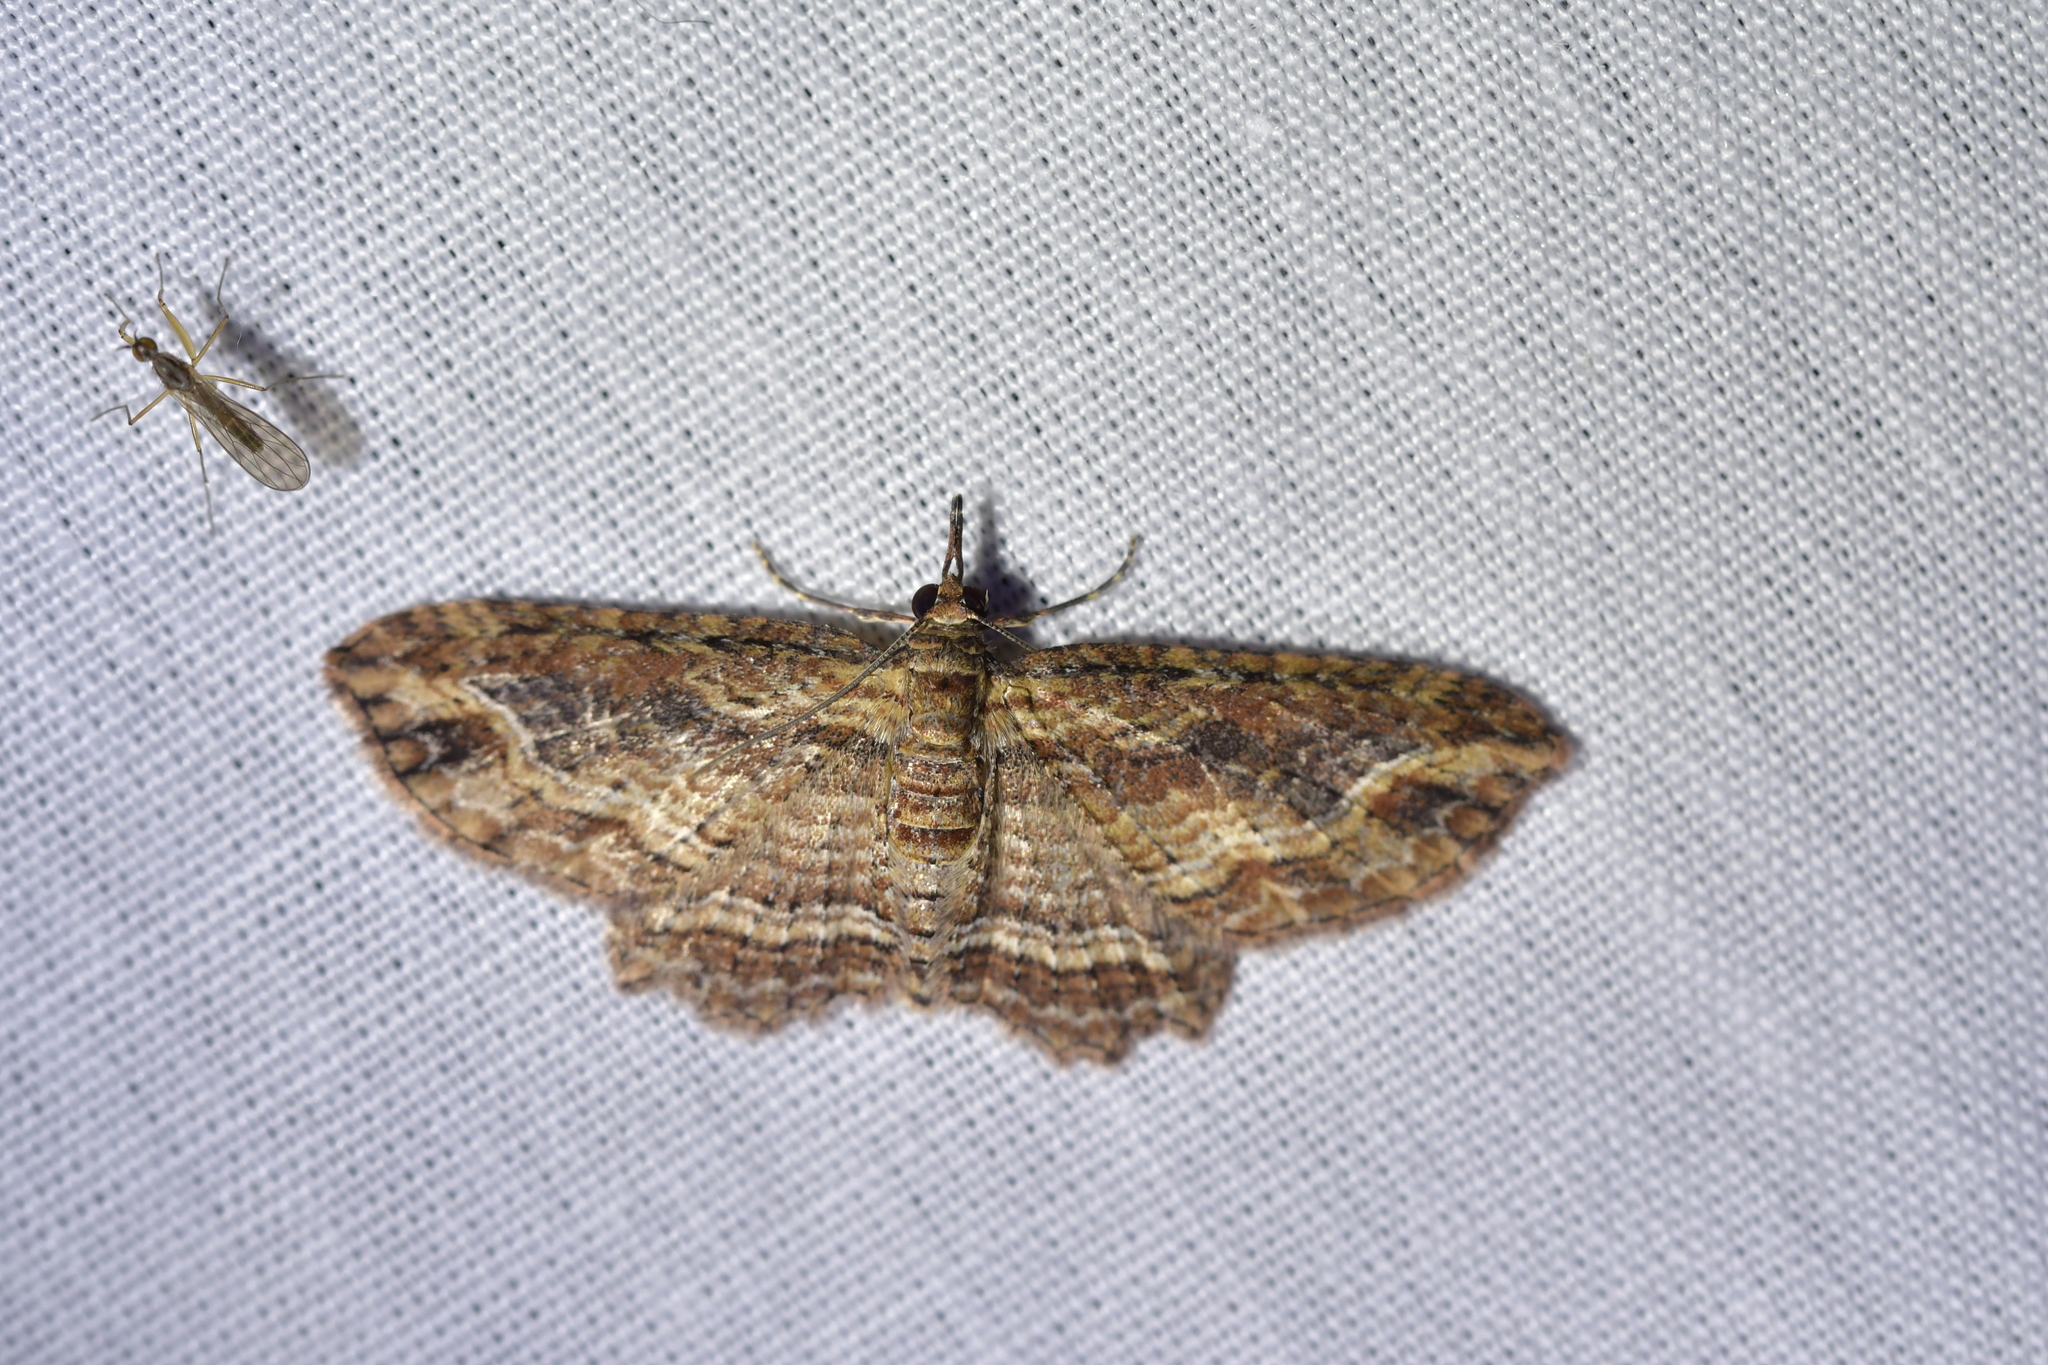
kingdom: Animalia
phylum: Arthropoda
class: Insecta
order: Lepidoptera
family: Geometridae
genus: Chloroclystis
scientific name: Chloroclystis filata
